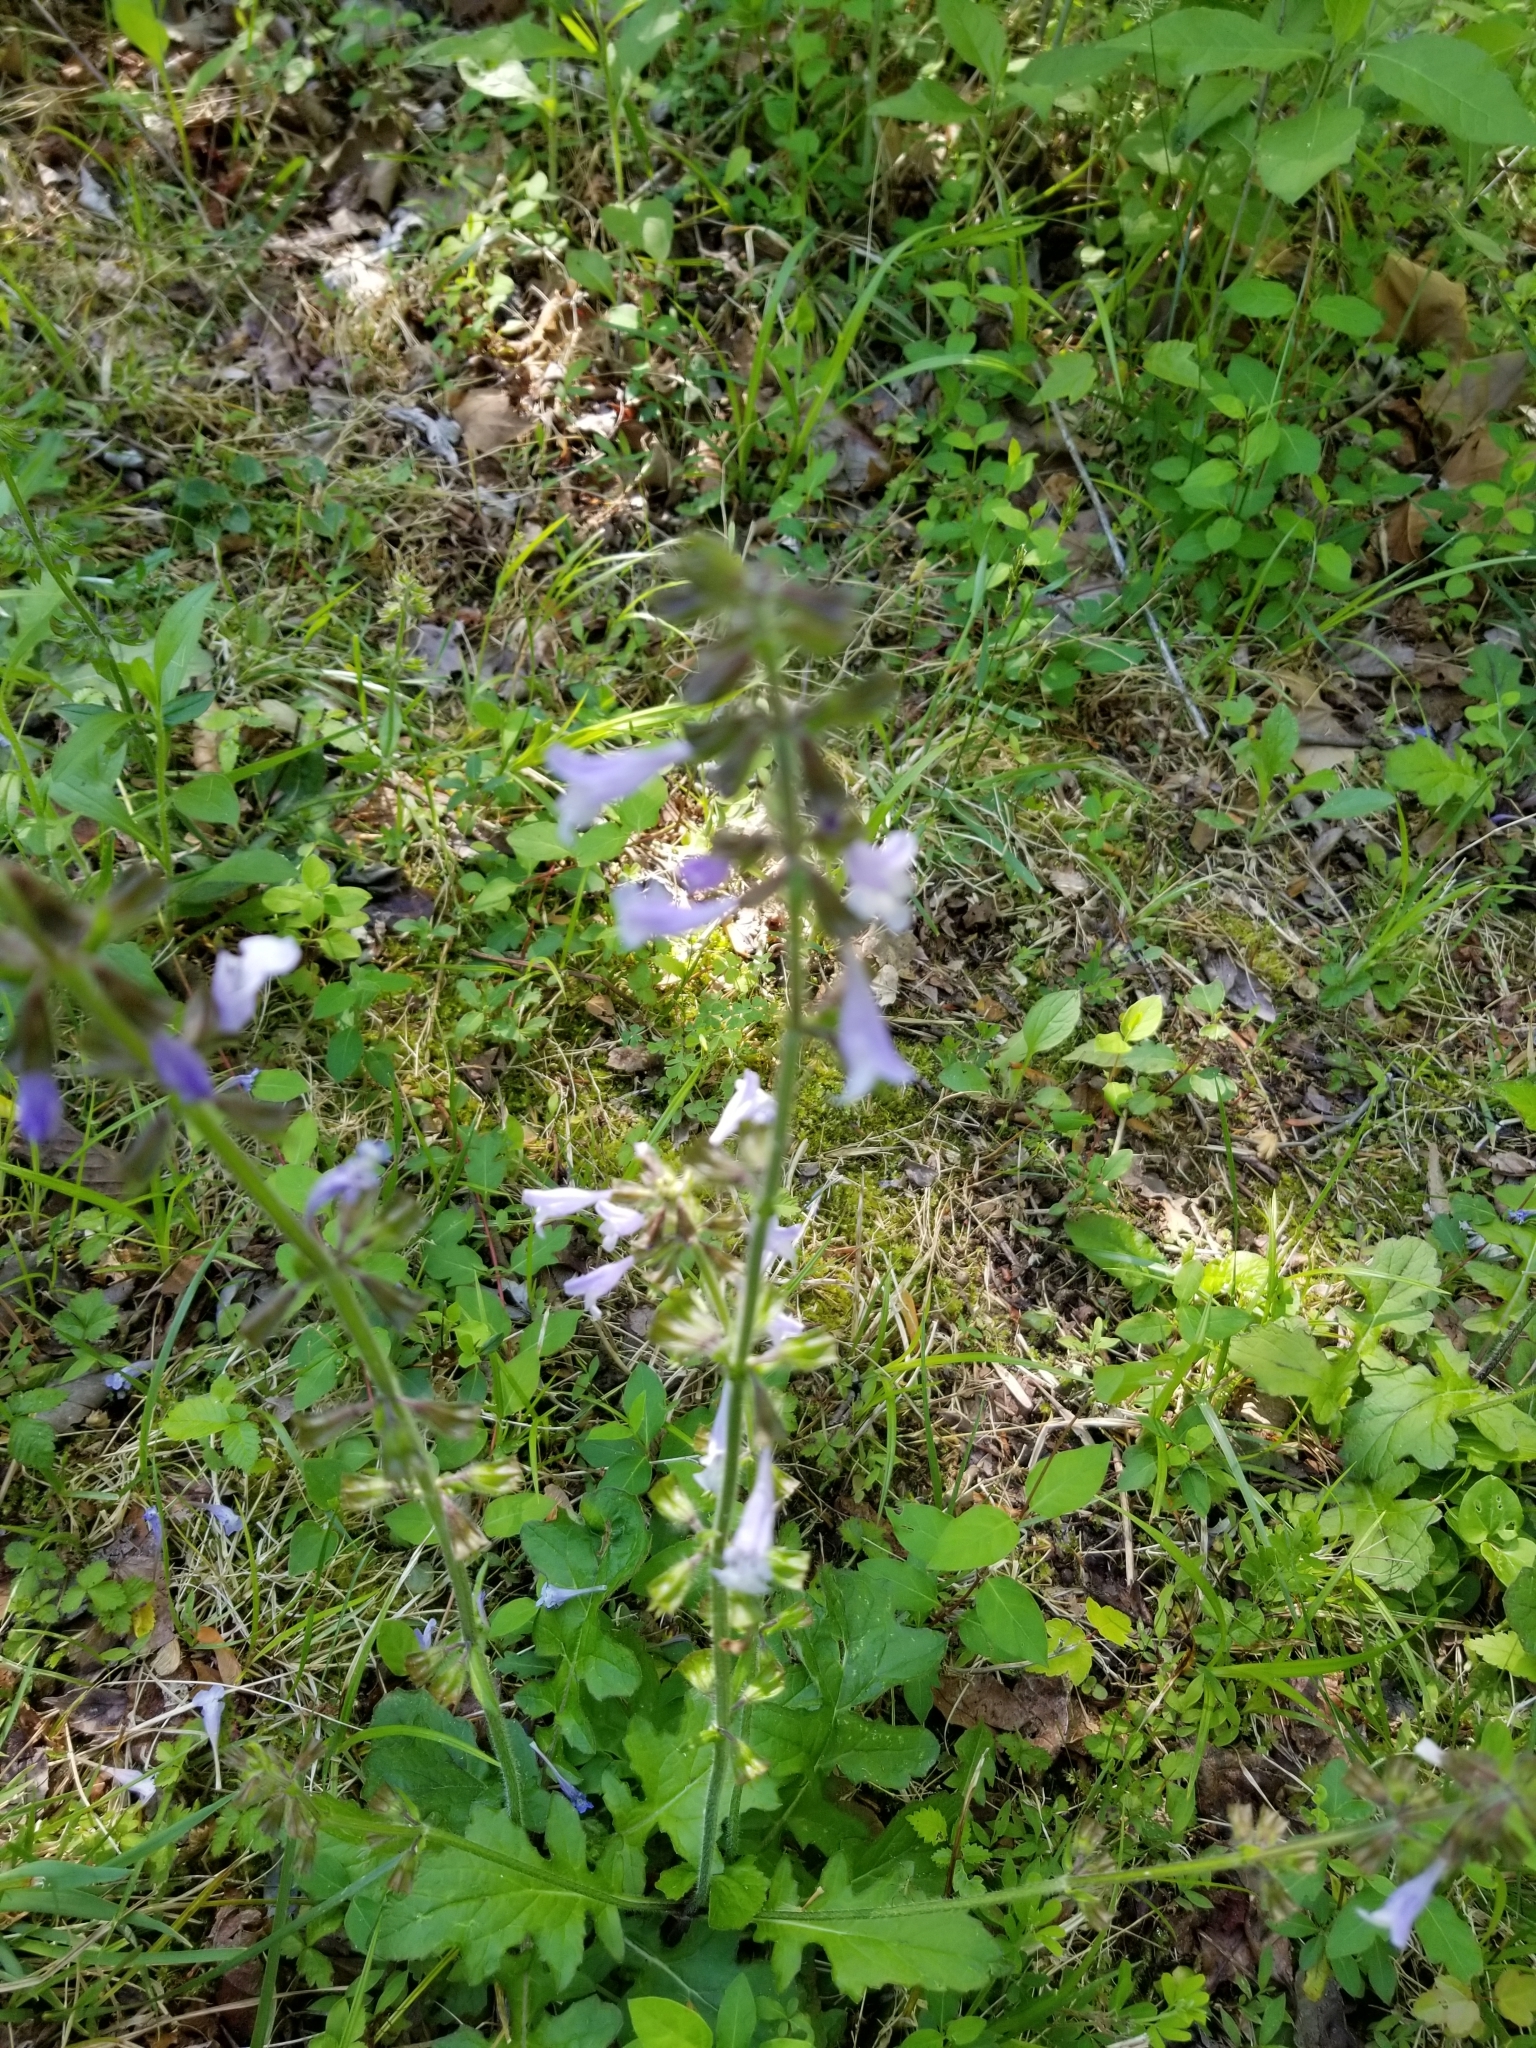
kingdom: Plantae
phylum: Tracheophyta
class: Magnoliopsida
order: Lamiales
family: Lamiaceae
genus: Salvia
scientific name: Salvia lyrata
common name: Cancerweed
